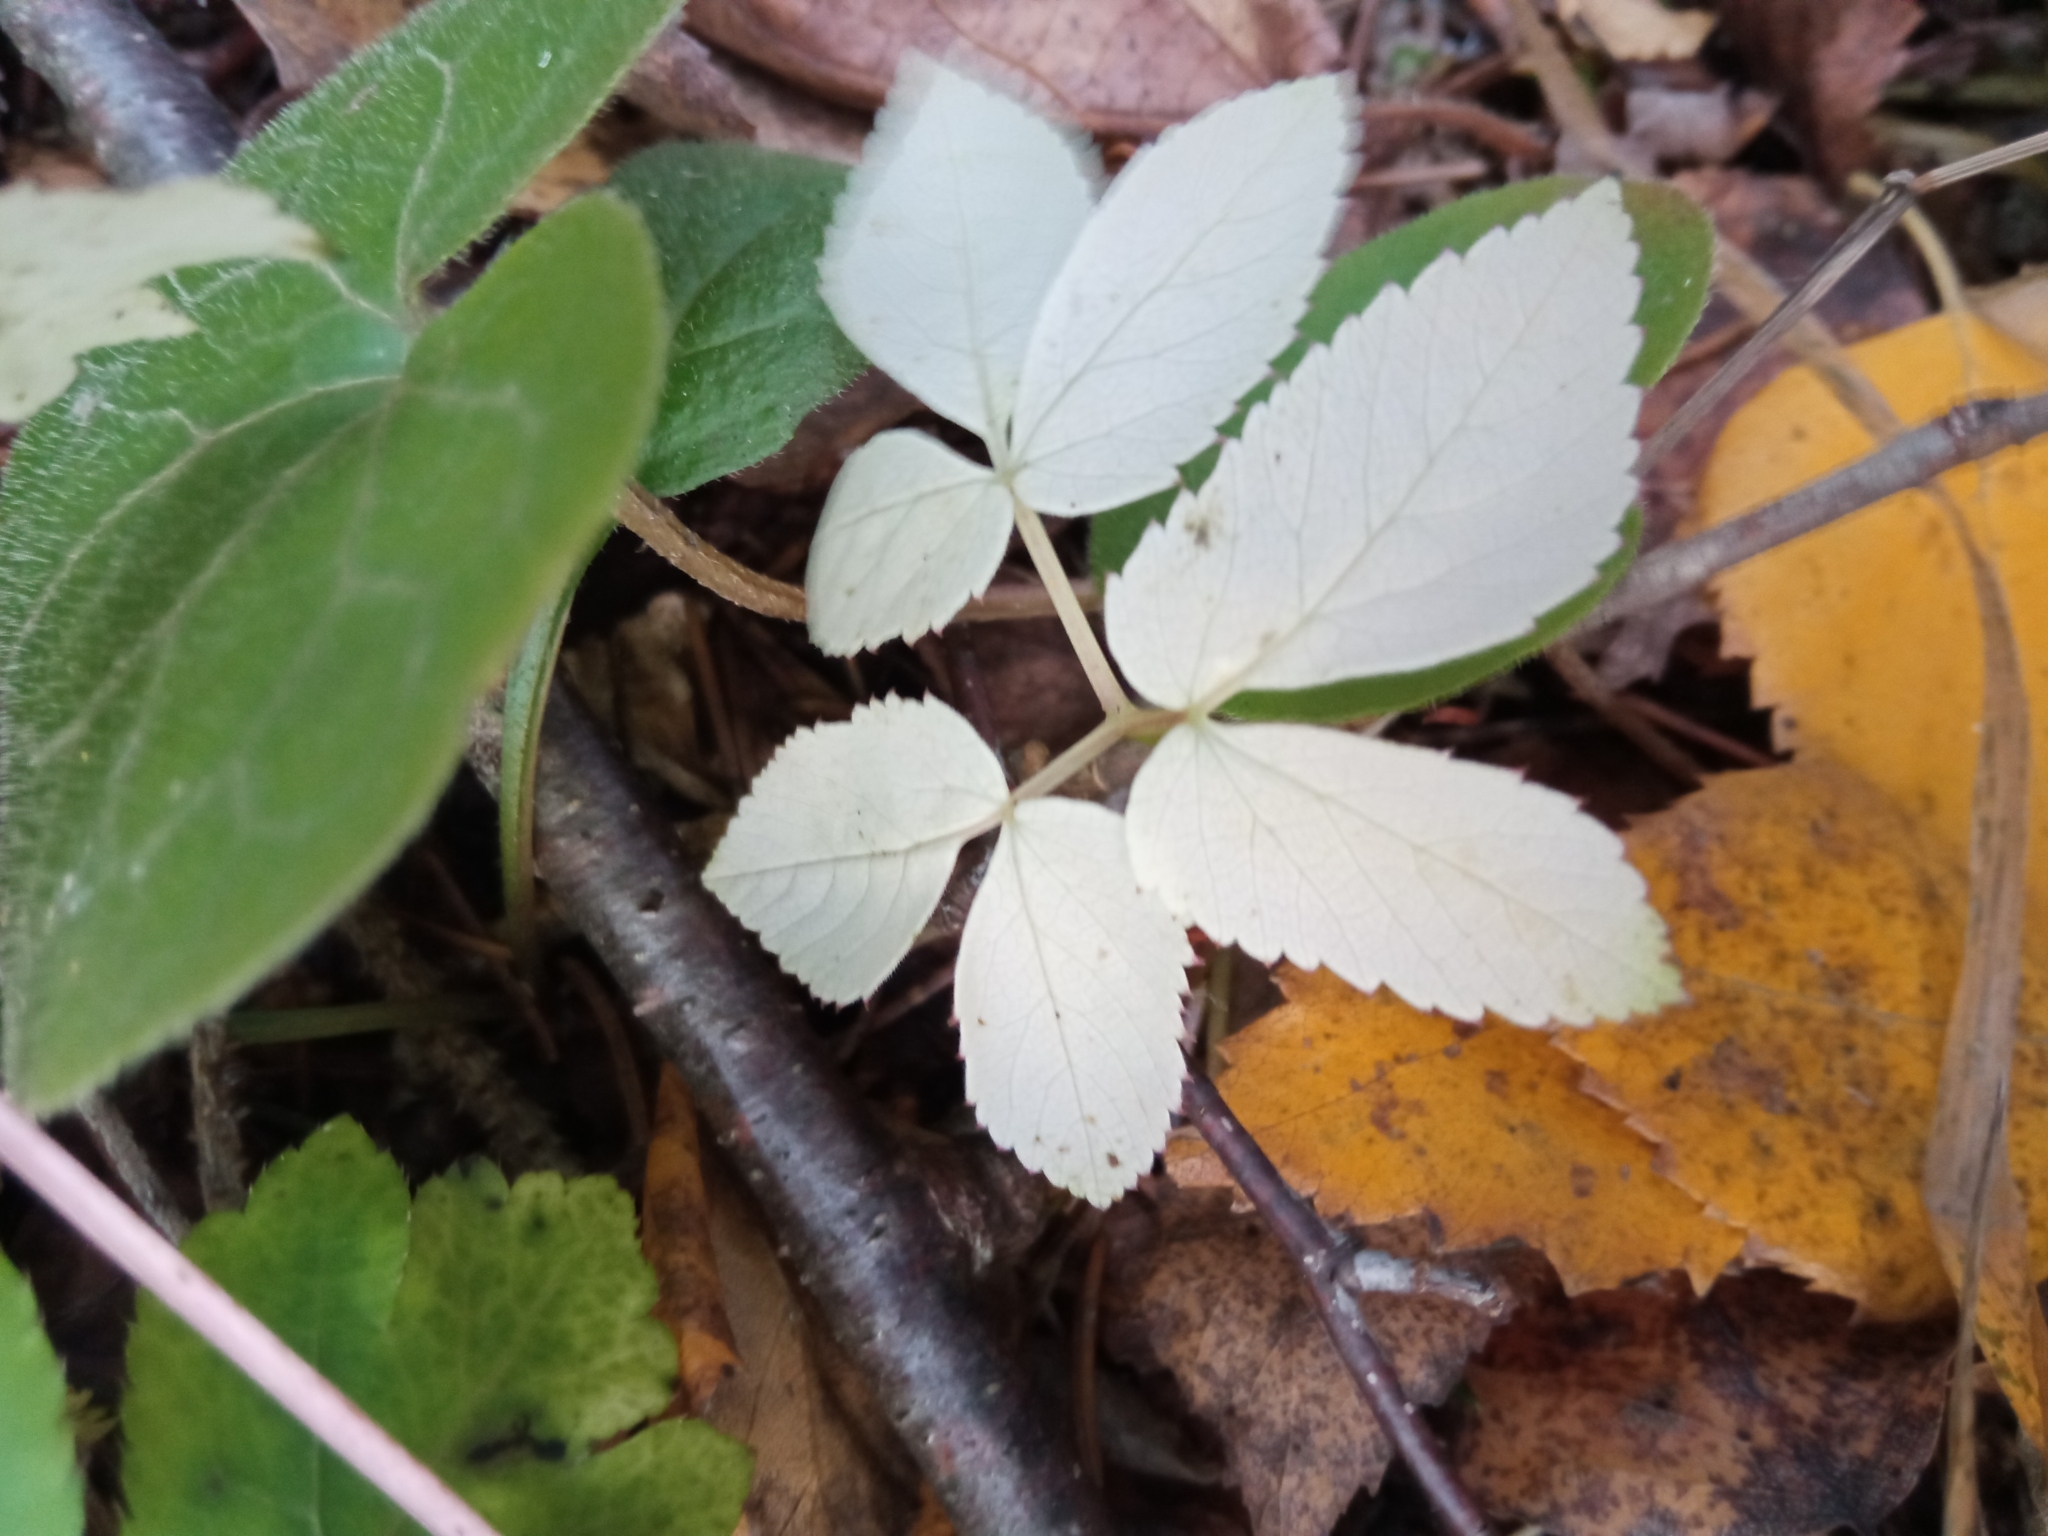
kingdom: Plantae
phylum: Tracheophyta
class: Magnoliopsida
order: Apiales
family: Apiaceae
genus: Aegopodium
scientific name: Aegopodium podagraria
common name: Ground-elder
